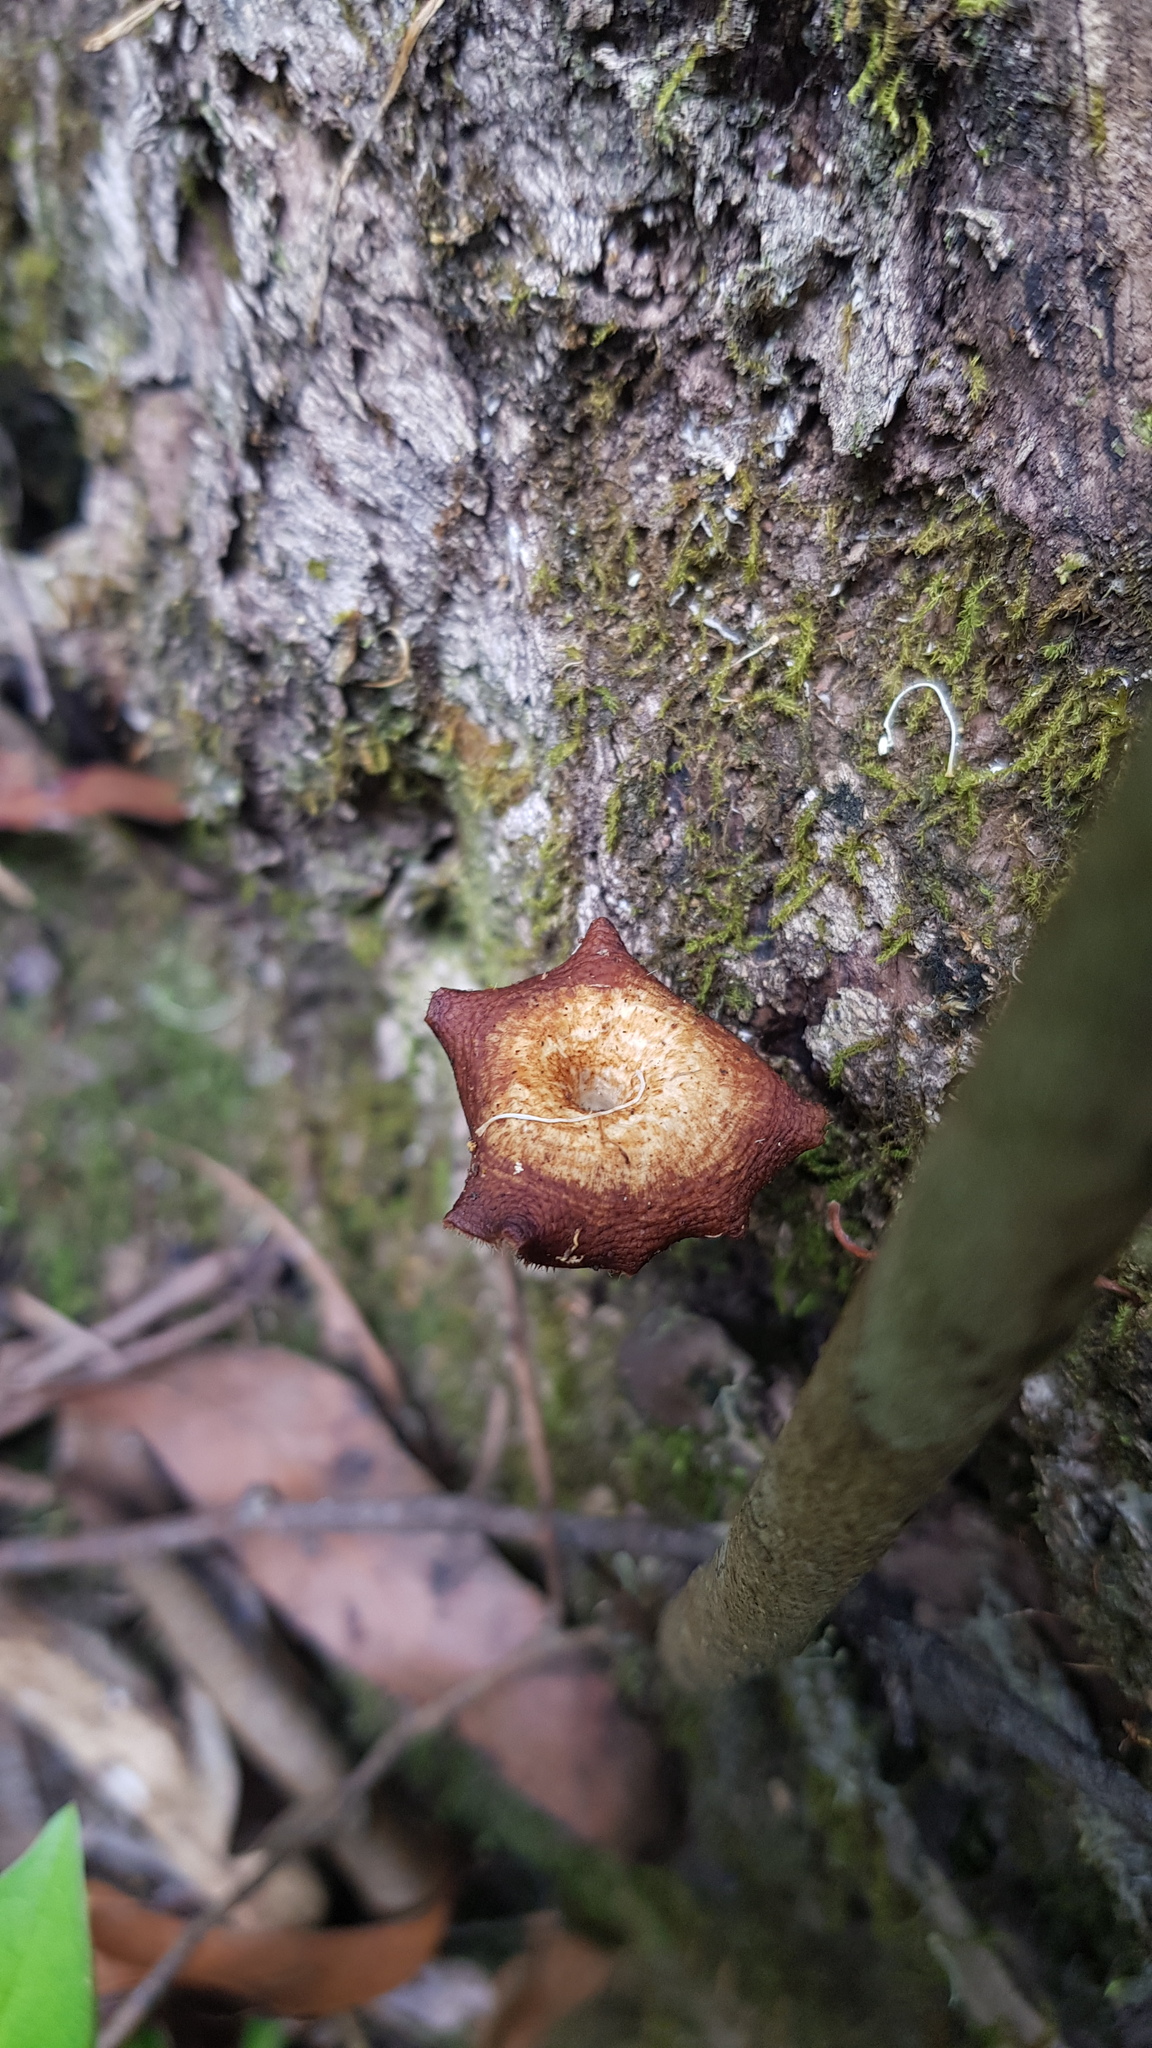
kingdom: Fungi
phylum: Basidiomycota
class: Agaricomycetes
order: Polyporales
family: Polyporaceae
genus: Lentinus
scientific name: Lentinus arcularius
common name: Spring polypore
